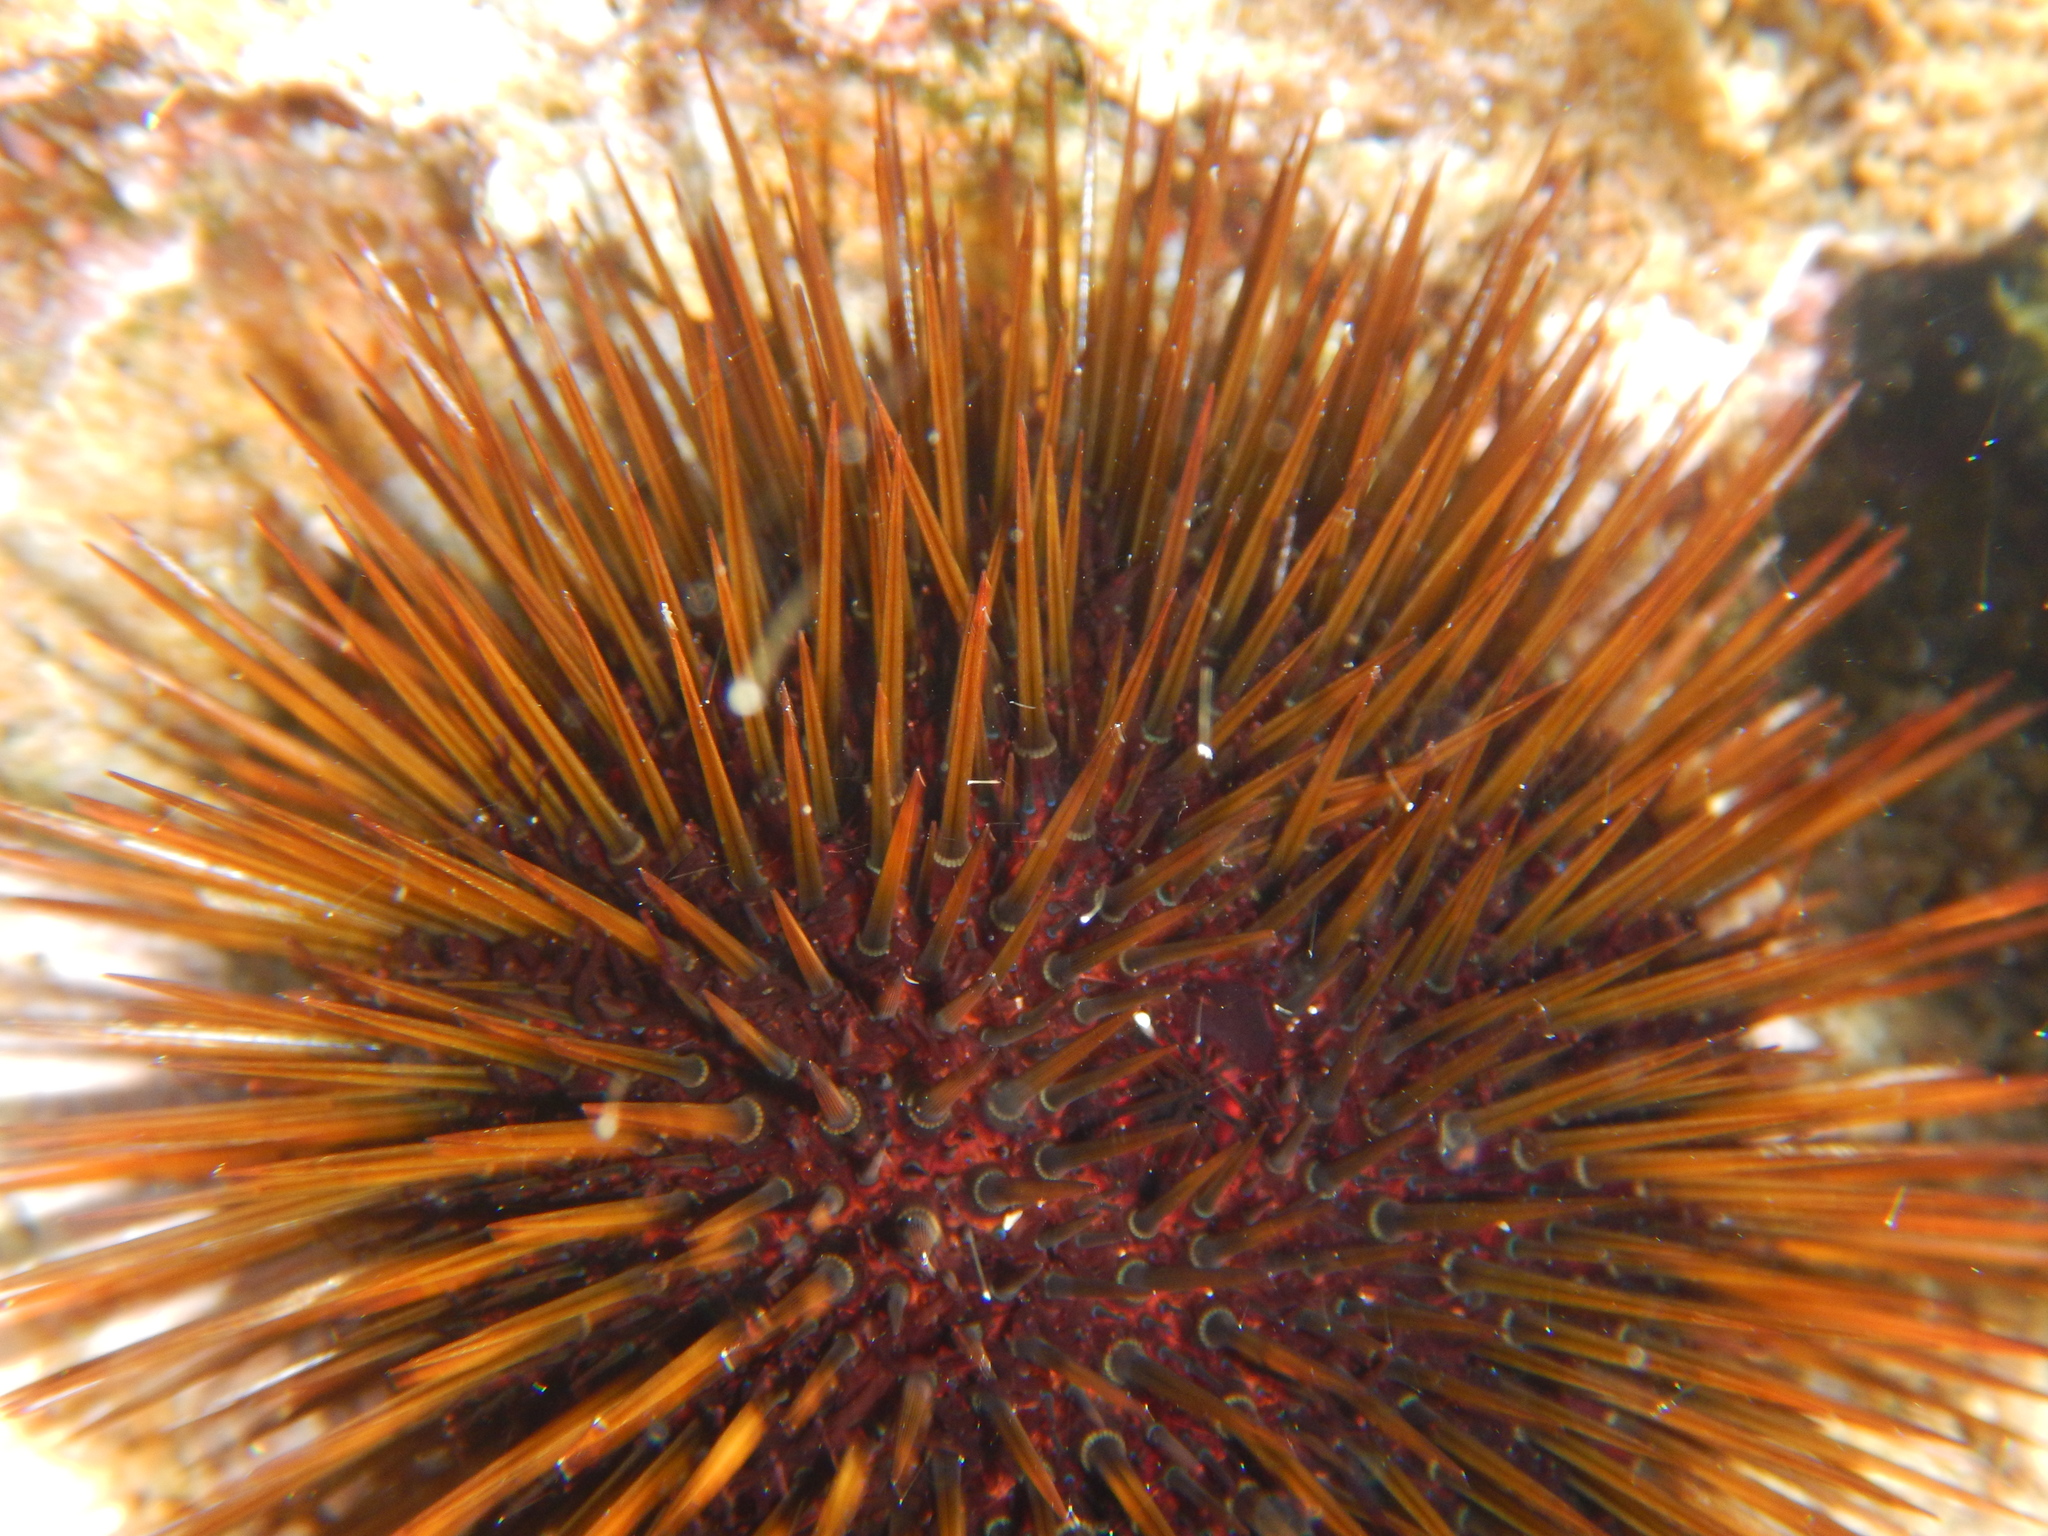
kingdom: Animalia
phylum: Echinodermata
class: Echinoidea
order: Camarodonta
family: Parechinidae
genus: Paracentrotus
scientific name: Paracentrotus lividus
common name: Purple sea urchin
